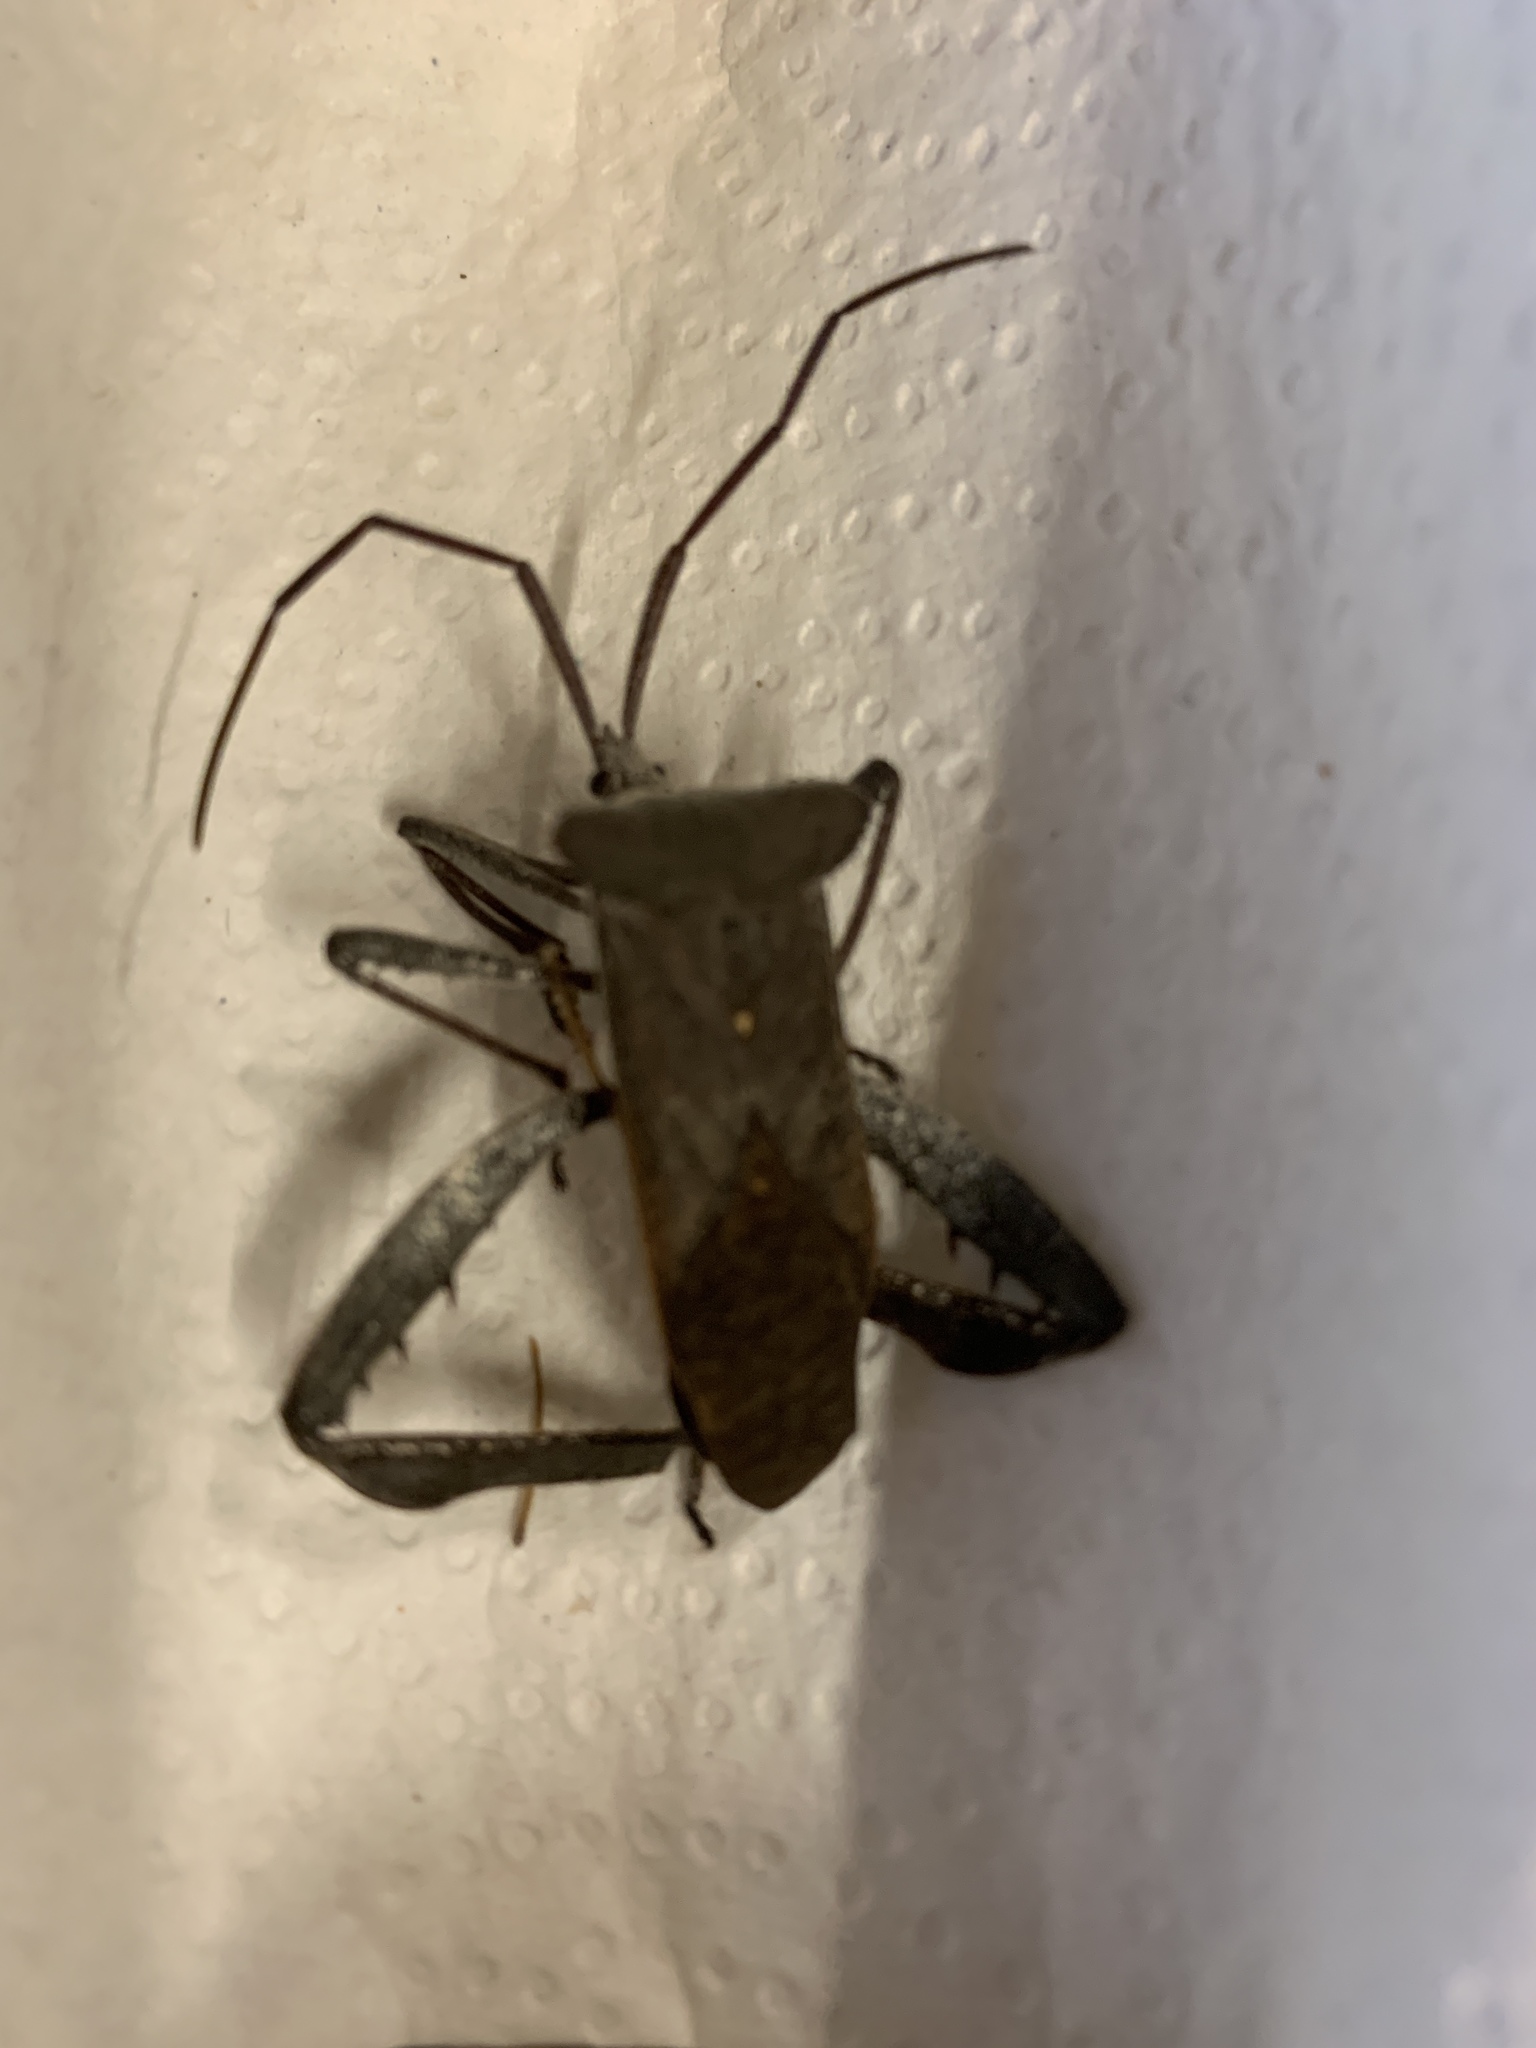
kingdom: Animalia
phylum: Arthropoda
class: Insecta
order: Hemiptera
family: Coreidae
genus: Acanthocephala
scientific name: Acanthocephala declivis
